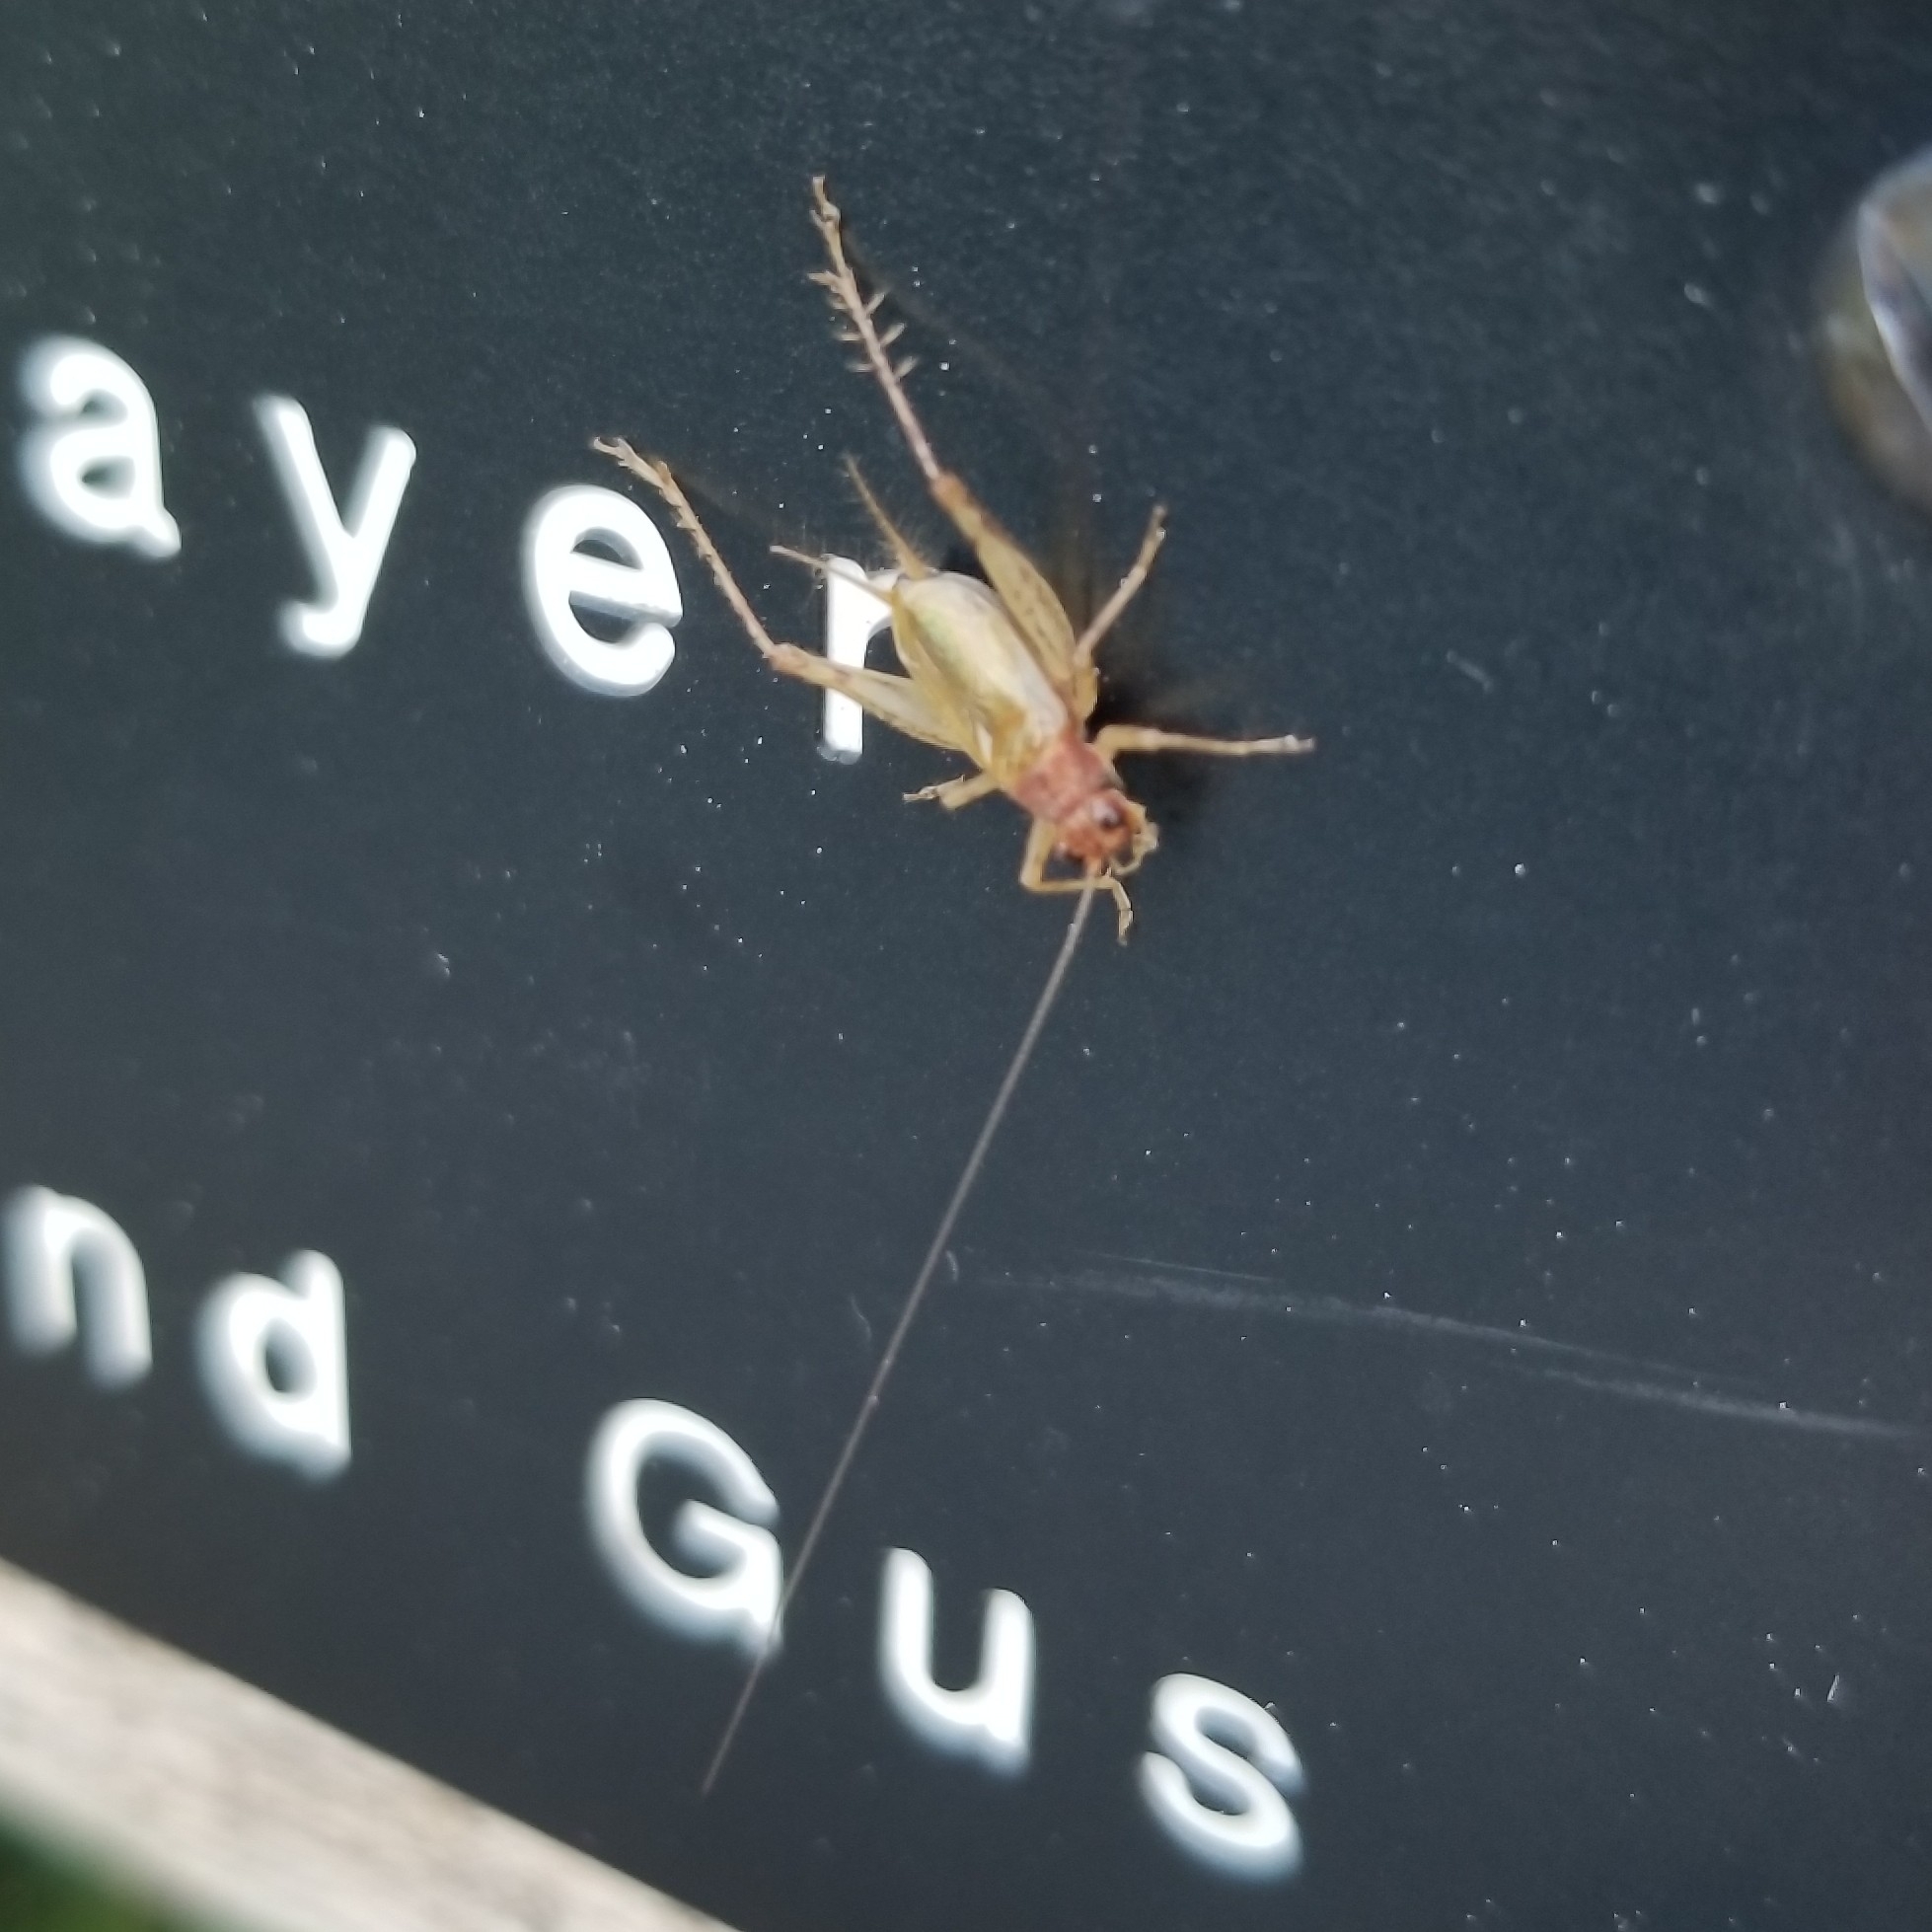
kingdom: Animalia
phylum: Arthropoda
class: Insecta
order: Orthoptera
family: Trigonidiidae
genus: Anaxipha
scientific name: Anaxipha exigua
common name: Say's bush cricket
